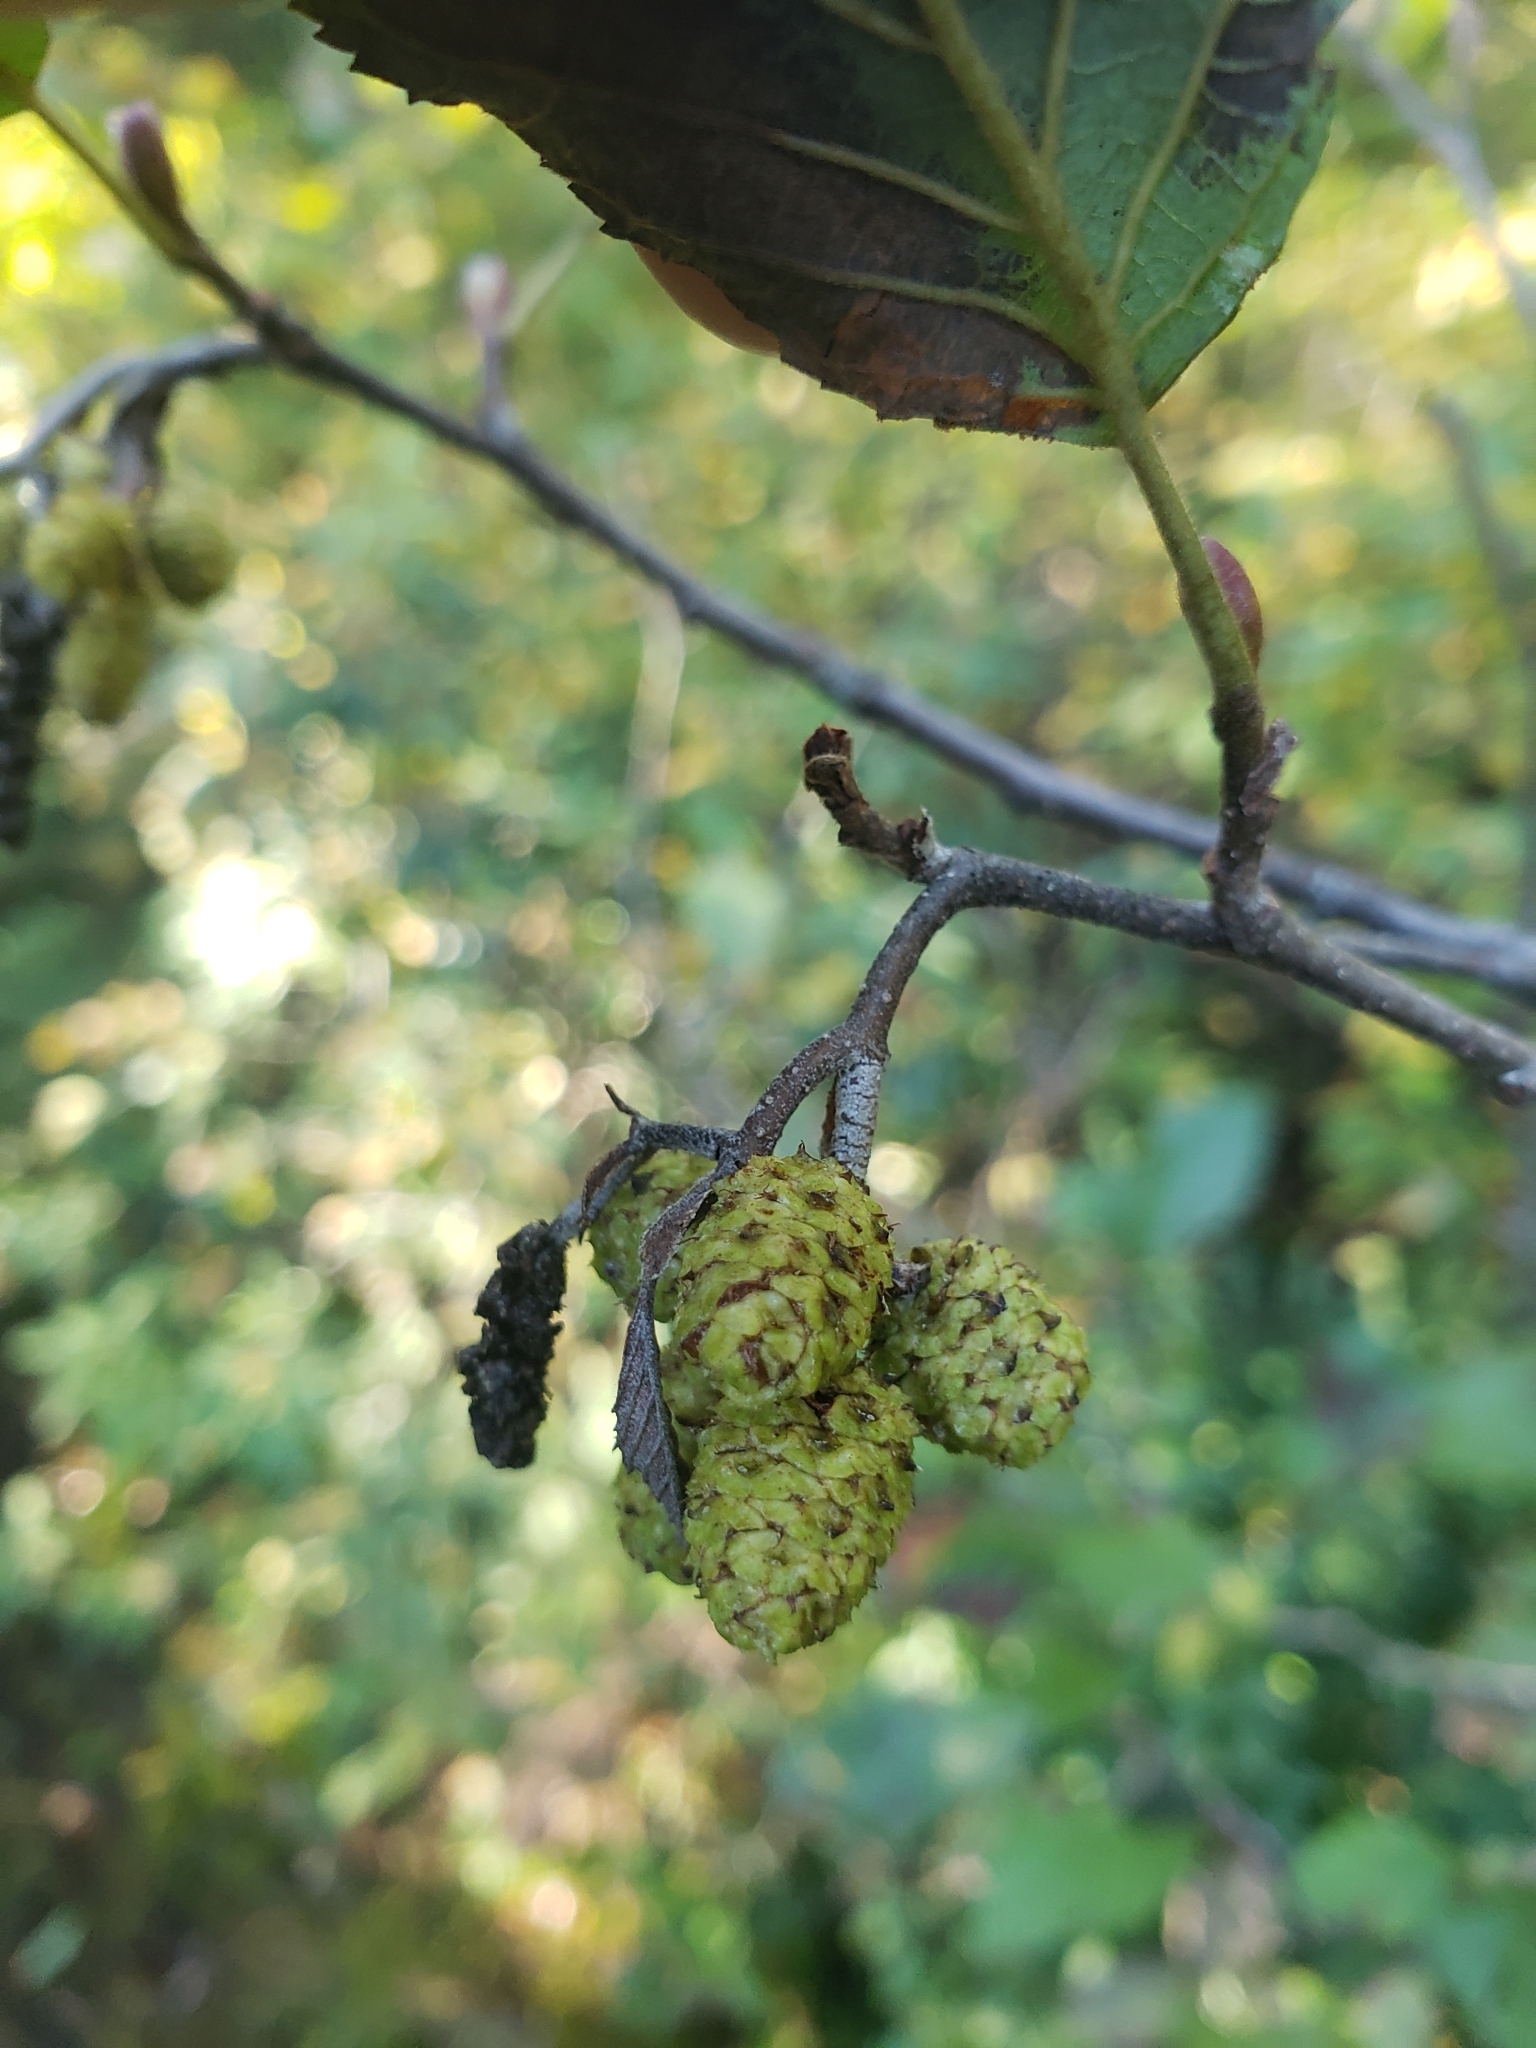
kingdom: Plantae
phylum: Tracheophyta
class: Magnoliopsida
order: Fagales
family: Betulaceae
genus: Alnus
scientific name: Alnus incana
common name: Grey alder
